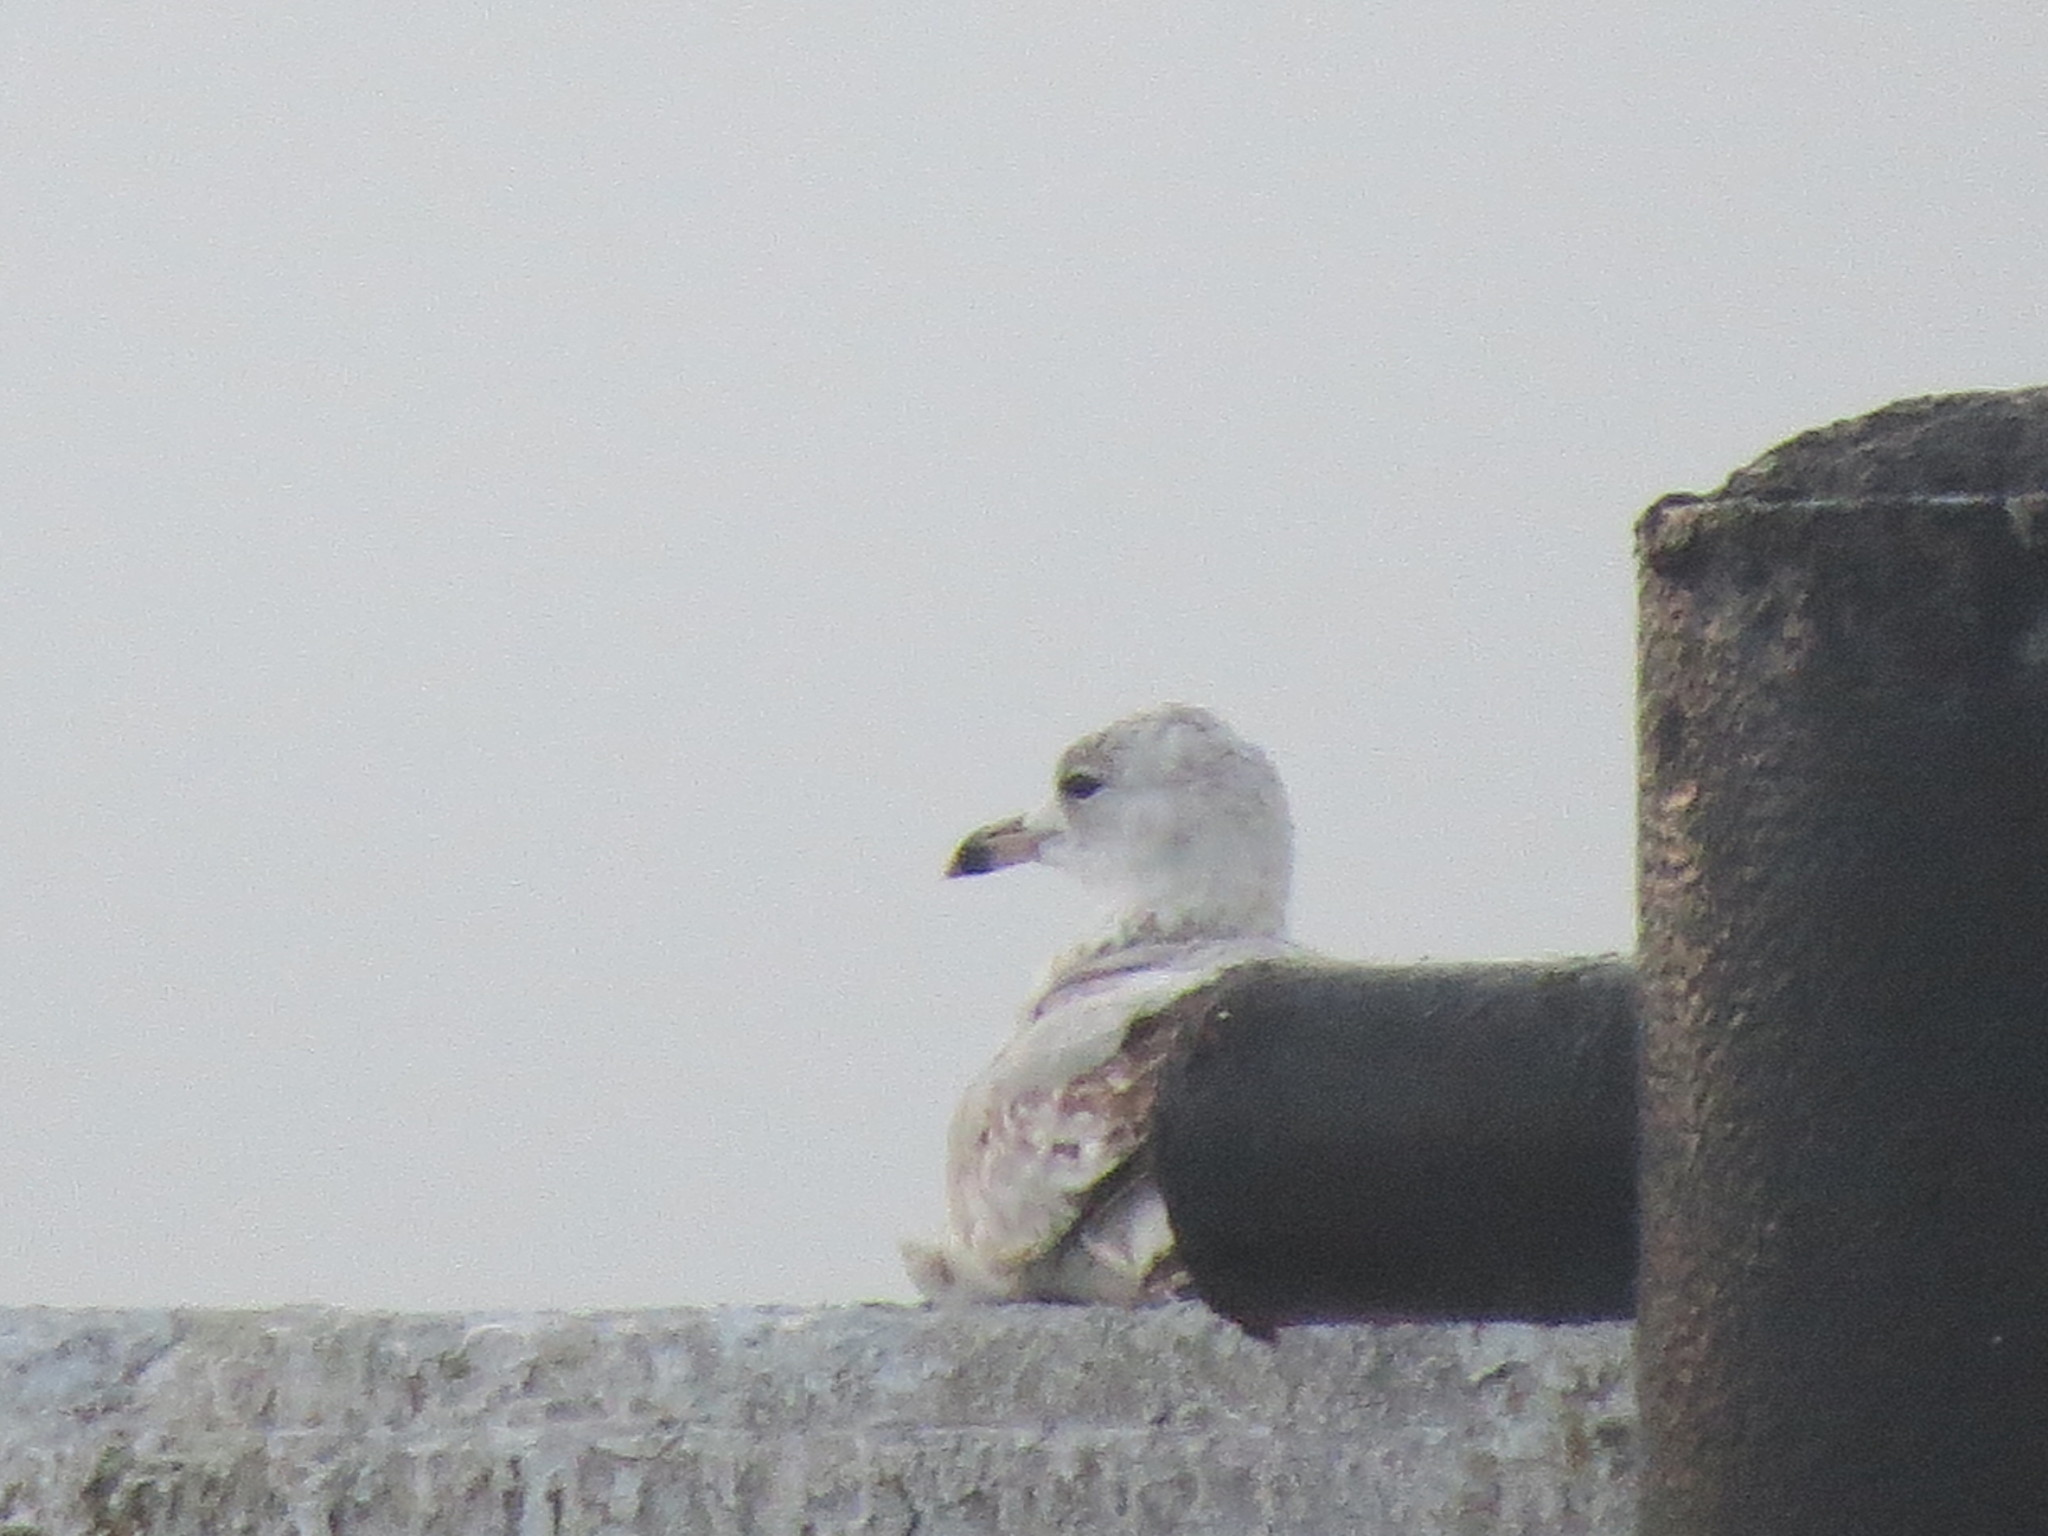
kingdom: Animalia
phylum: Chordata
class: Aves
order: Charadriiformes
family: Laridae
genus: Larus
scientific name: Larus delawarensis
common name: Ring-billed gull
